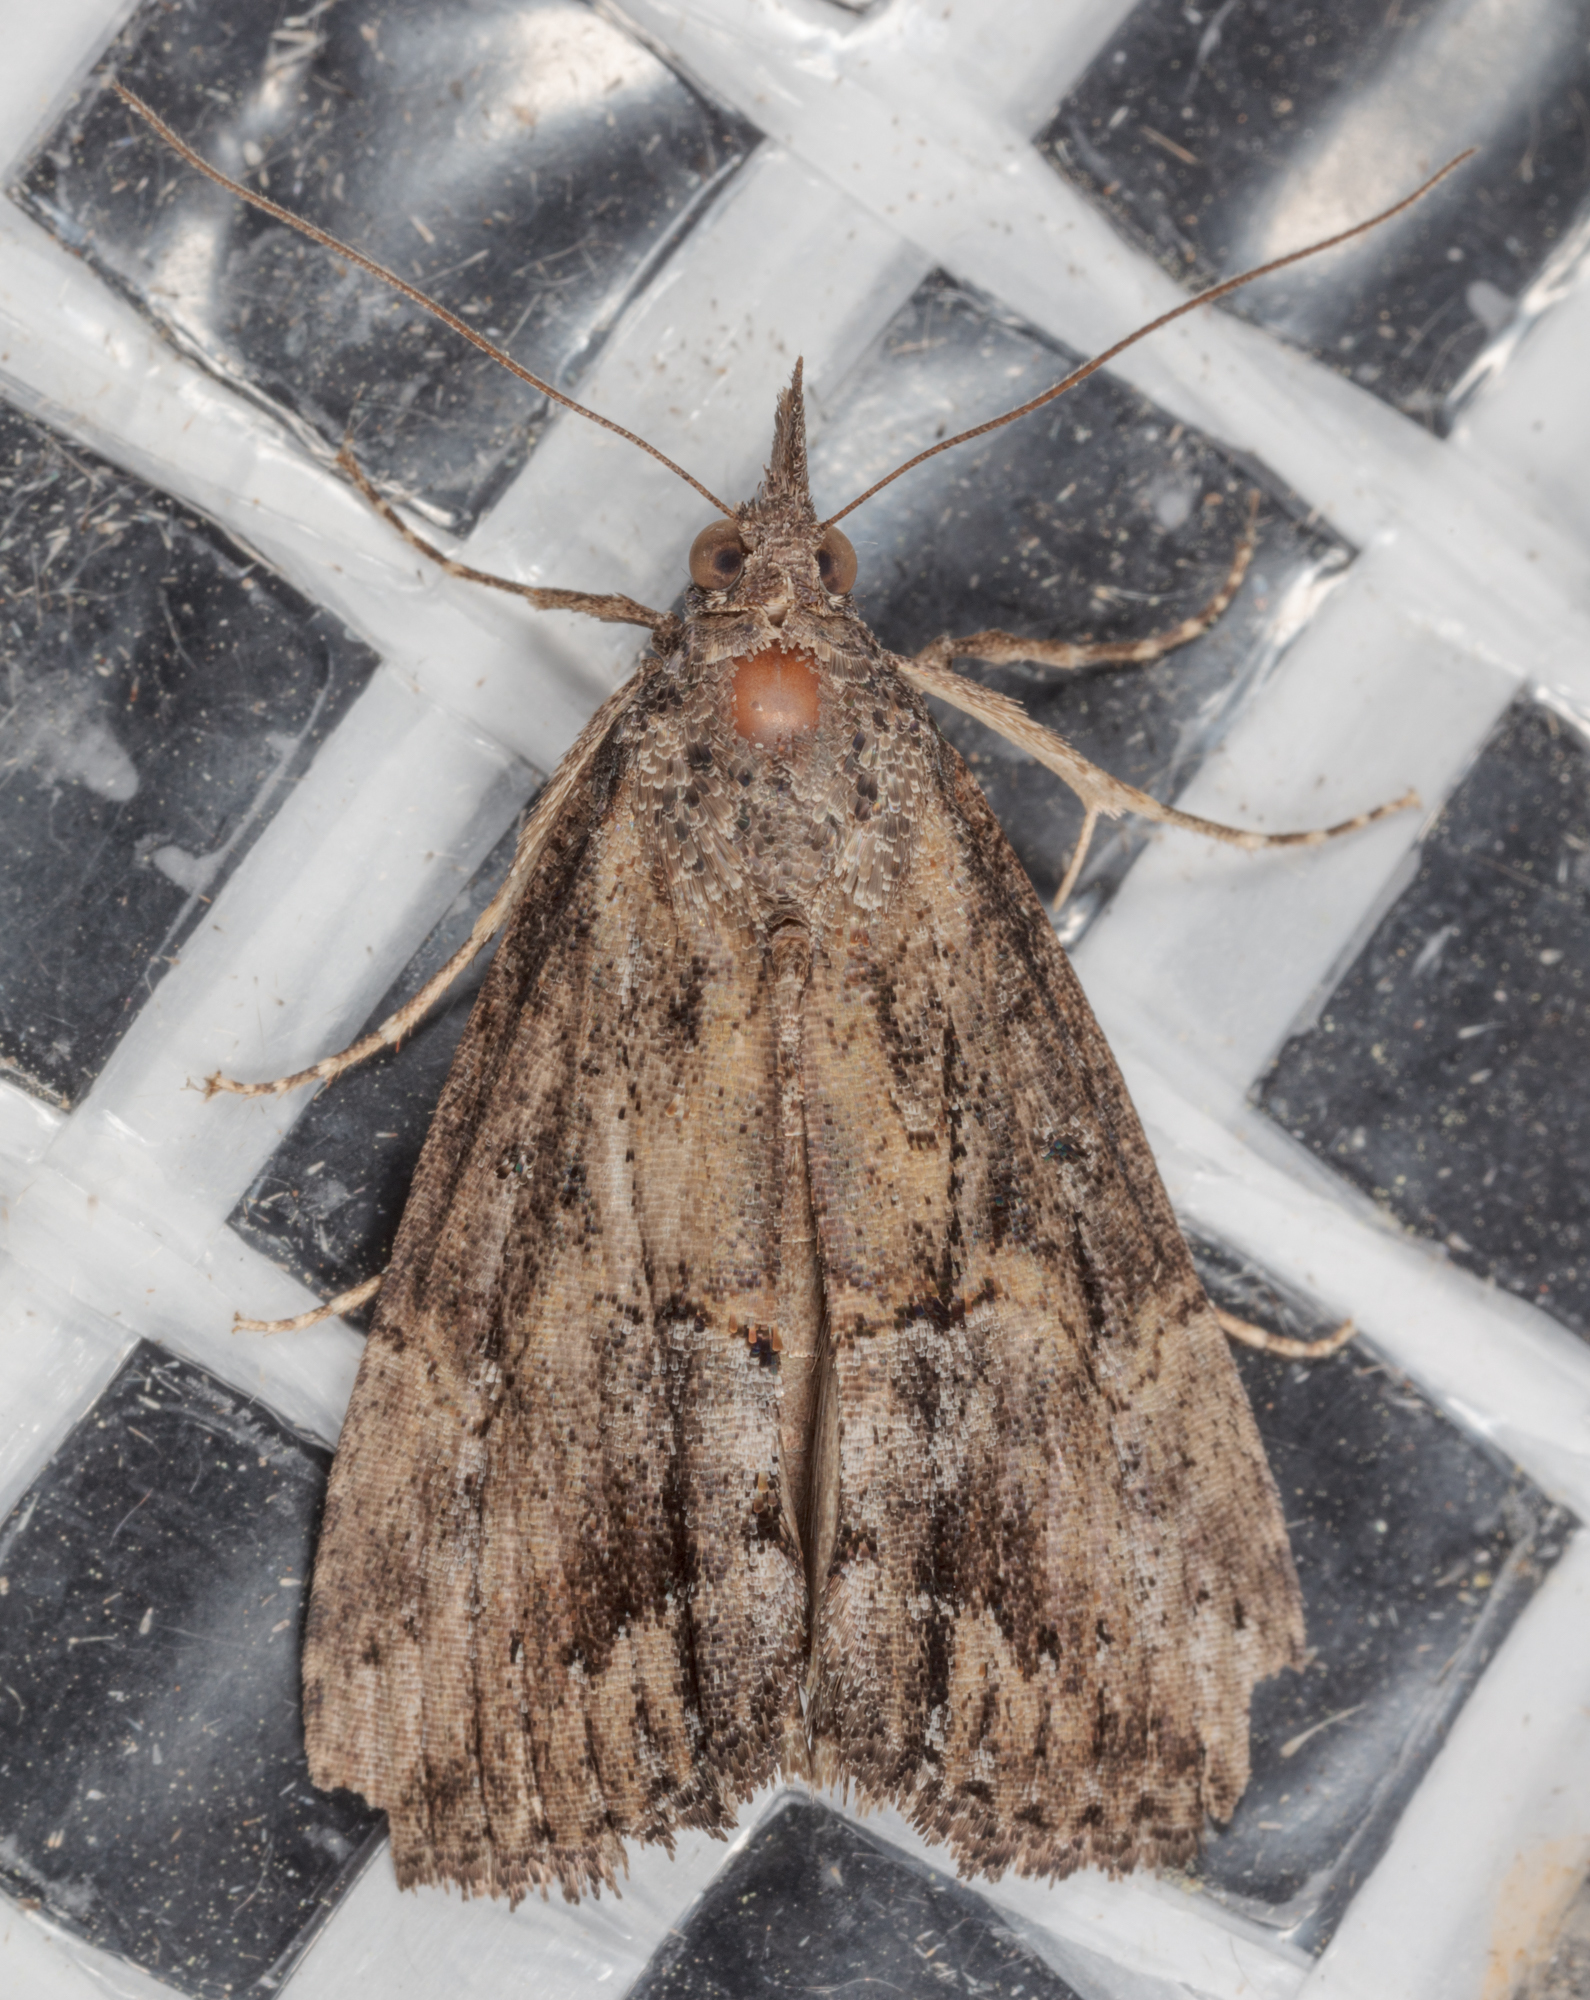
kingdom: Animalia
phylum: Arthropoda
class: Insecta
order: Lepidoptera
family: Erebidae
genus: Hypena
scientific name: Hypena scabra
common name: Green cloverworm
